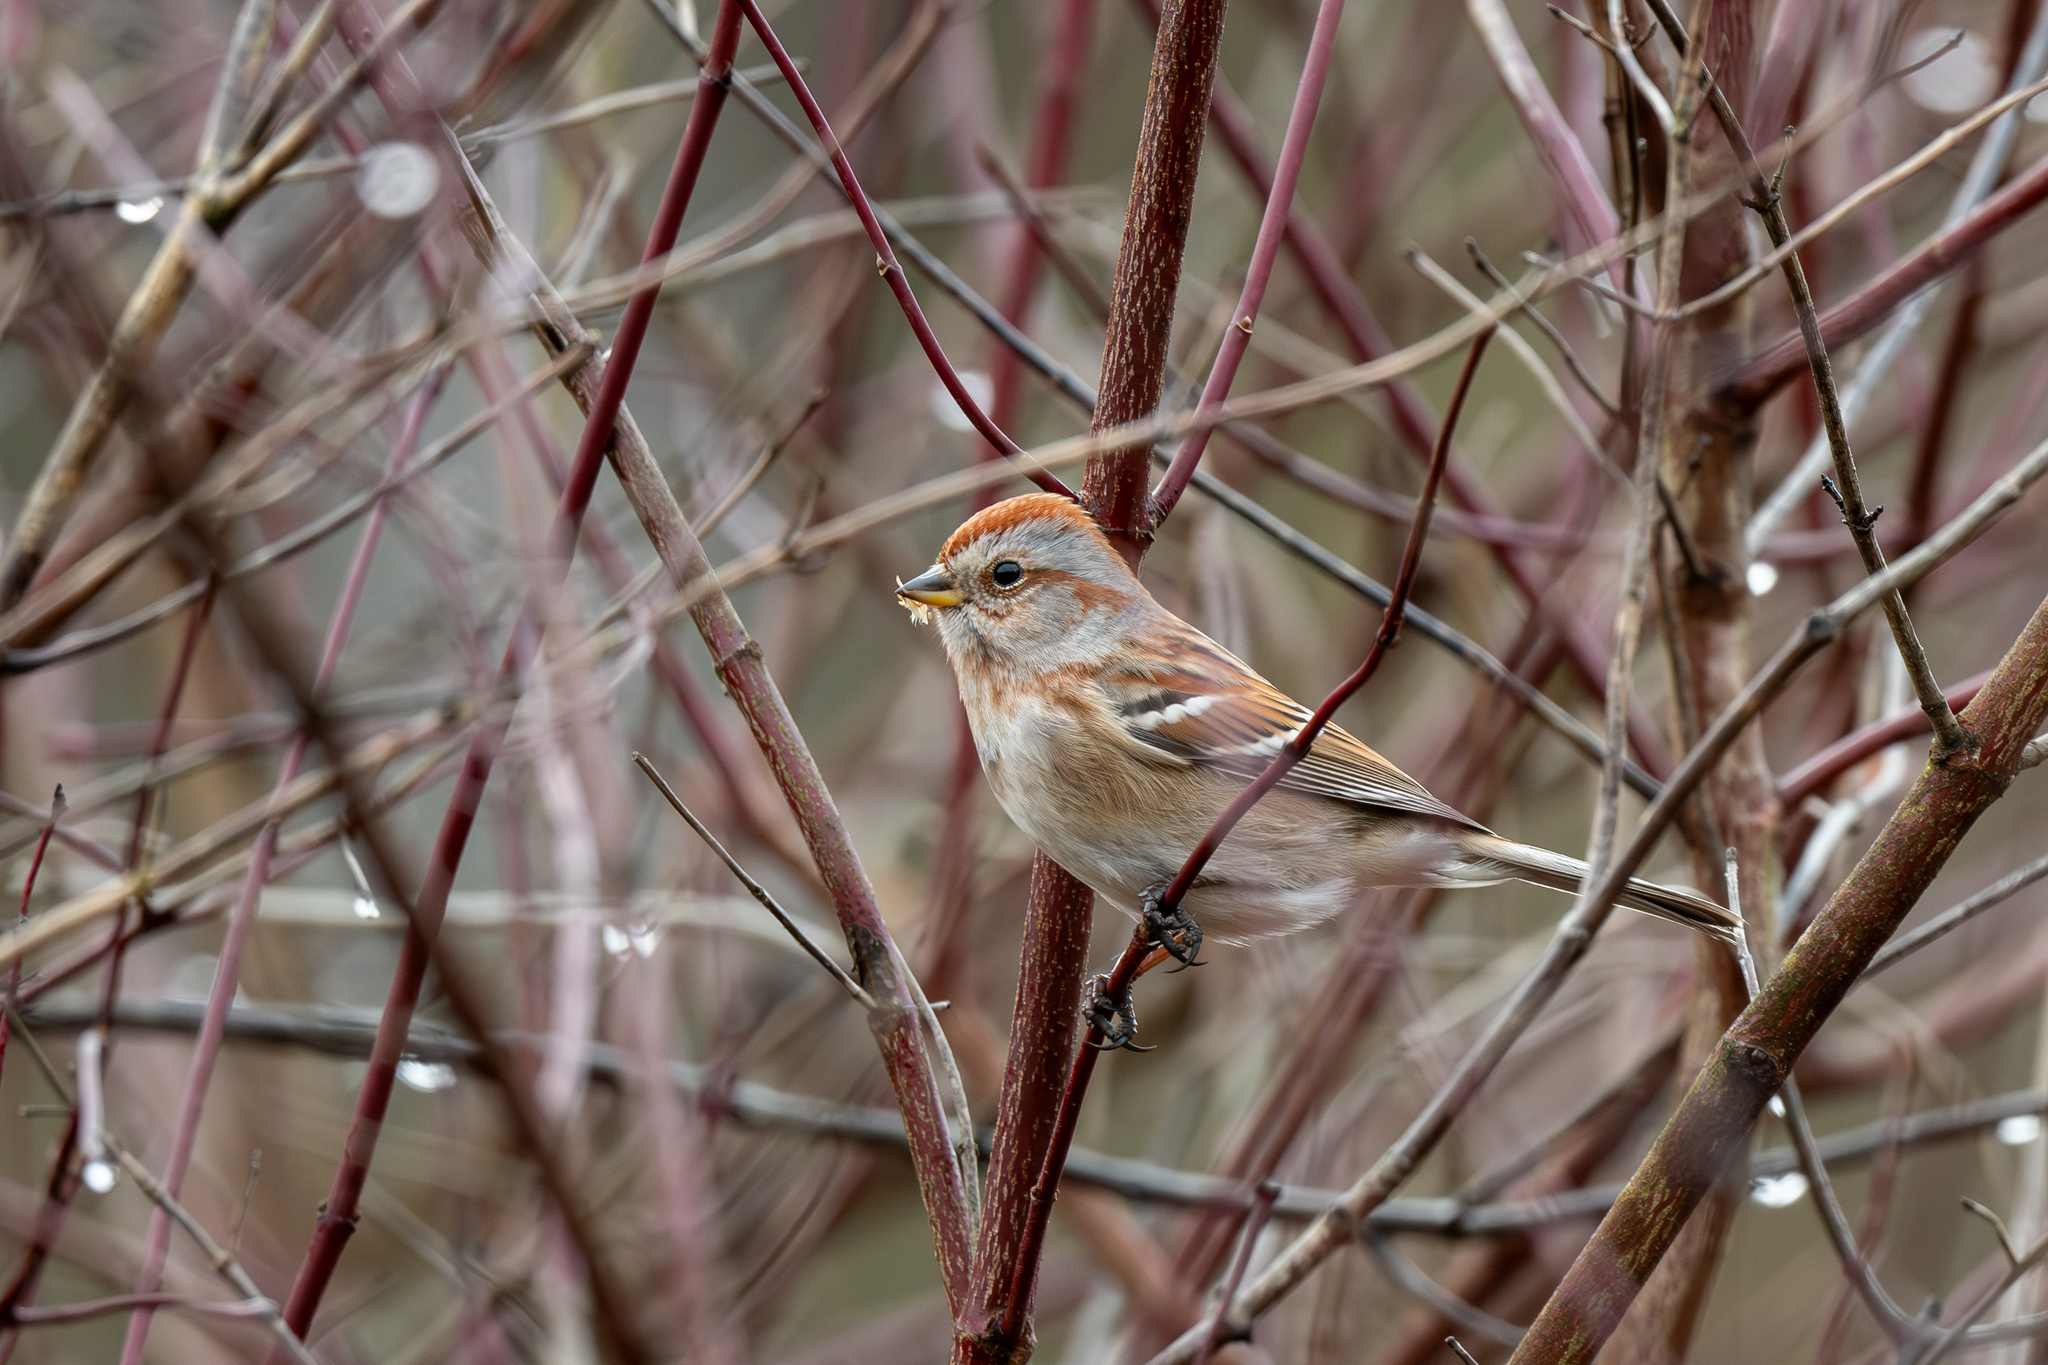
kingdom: Animalia
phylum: Chordata
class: Aves
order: Passeriformes
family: Passerellidae
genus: Spizelloides
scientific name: Spizelloides arborea
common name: American tree sparrow
